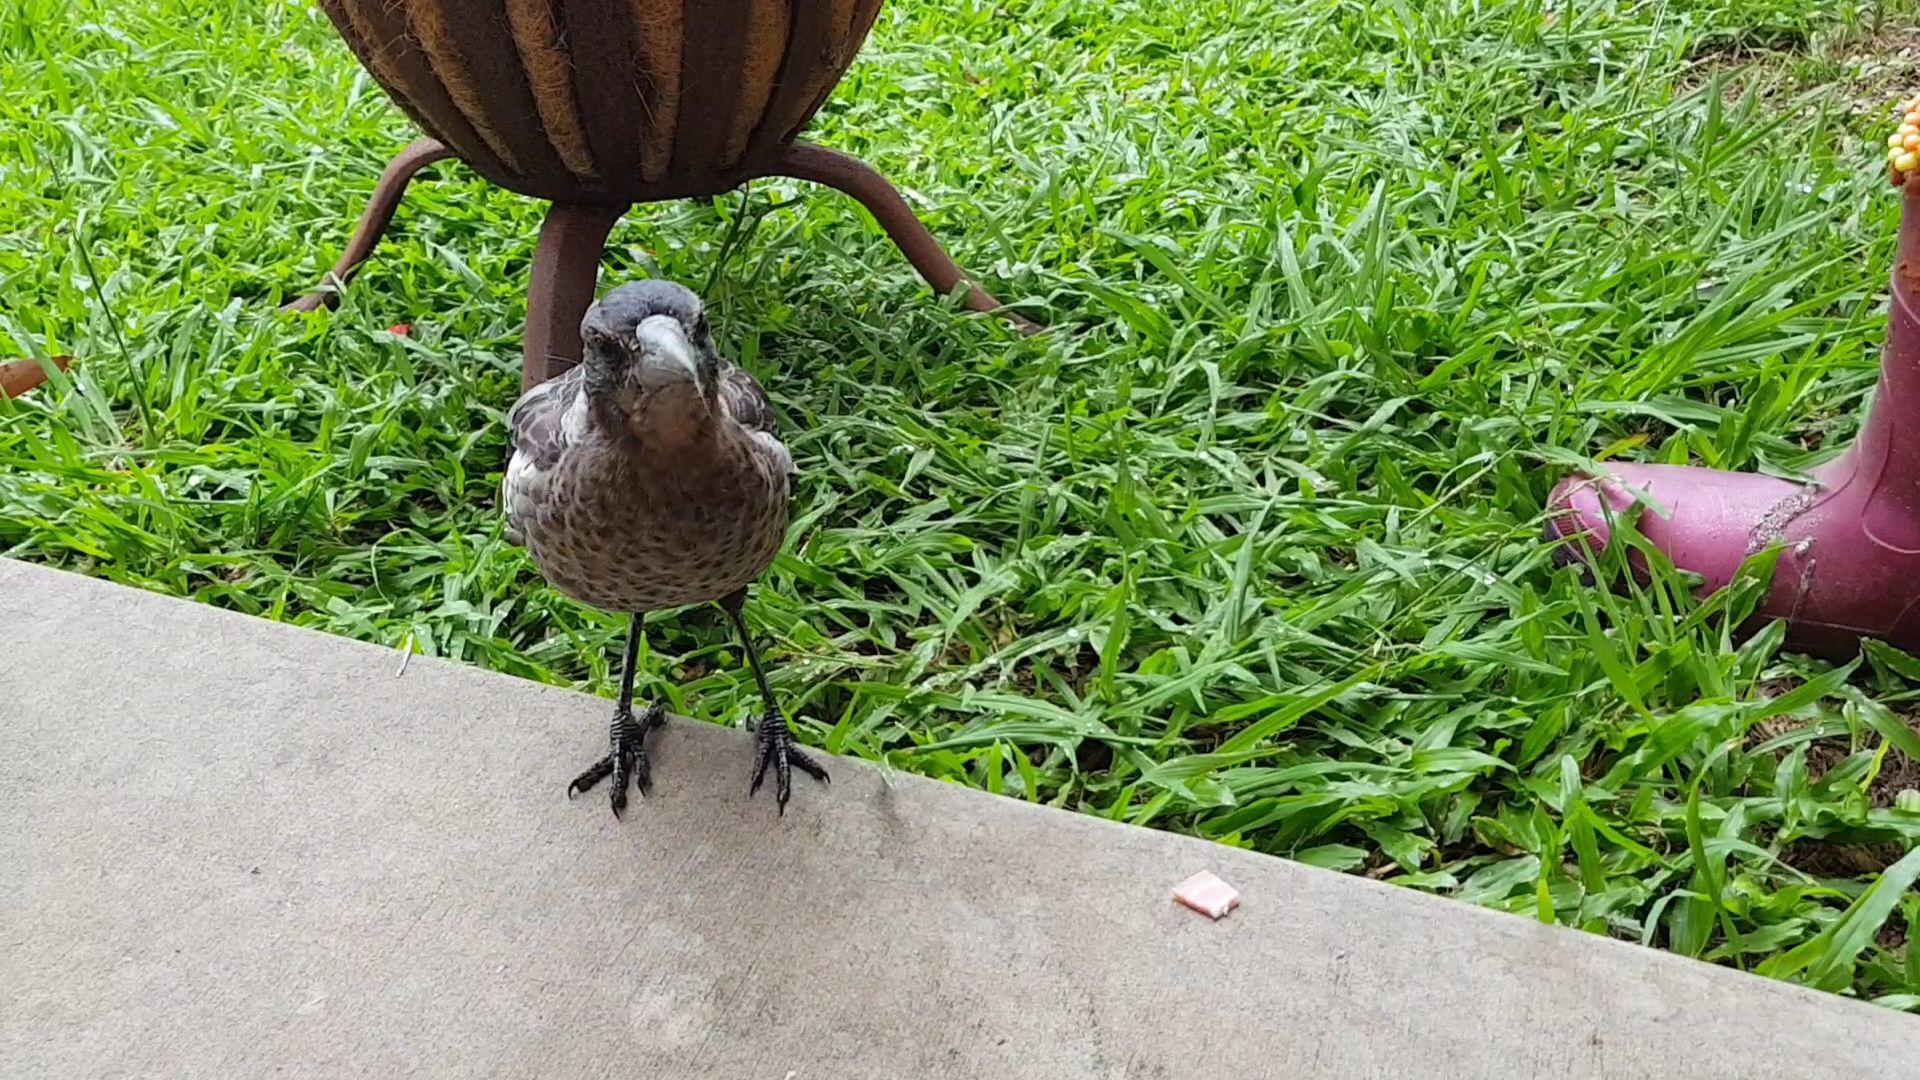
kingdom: Animalia
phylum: Chordata
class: Aves
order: Passeriformes
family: Cracticidae
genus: Gymnorhina
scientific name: Gymnorhina tibicen
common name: Australian magpie
